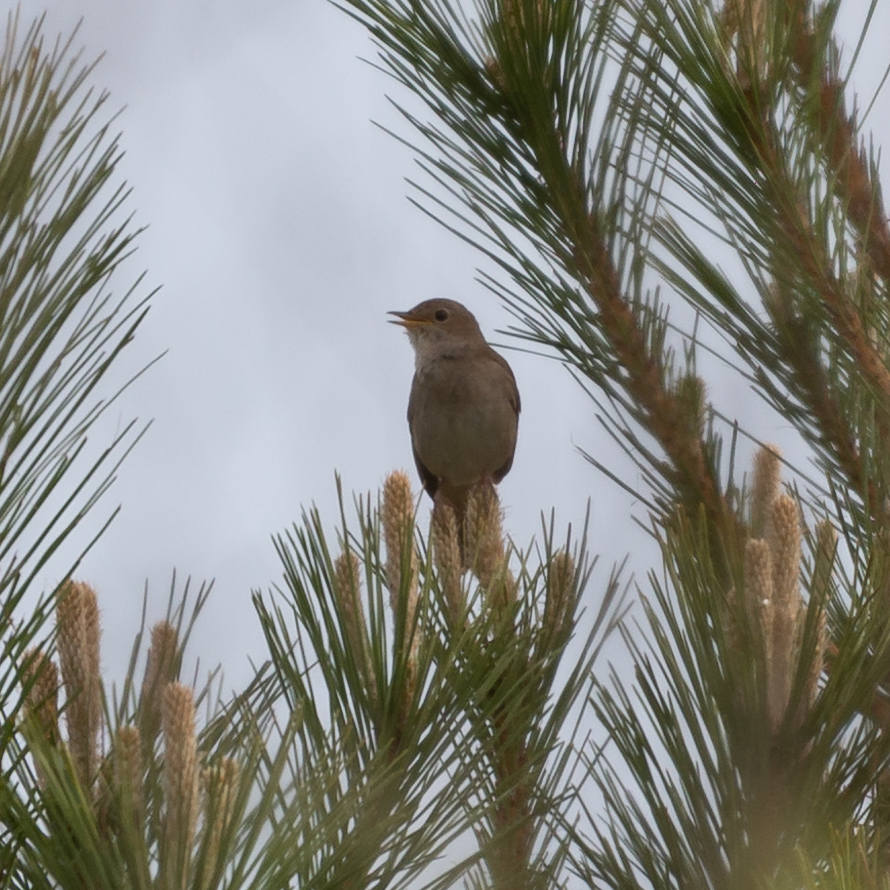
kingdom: Animalia
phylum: Chordata
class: Aves
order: Passeriformes
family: Muscicapidae
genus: Luscinia
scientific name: Luscinia megarhynchos
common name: Common nightingale
